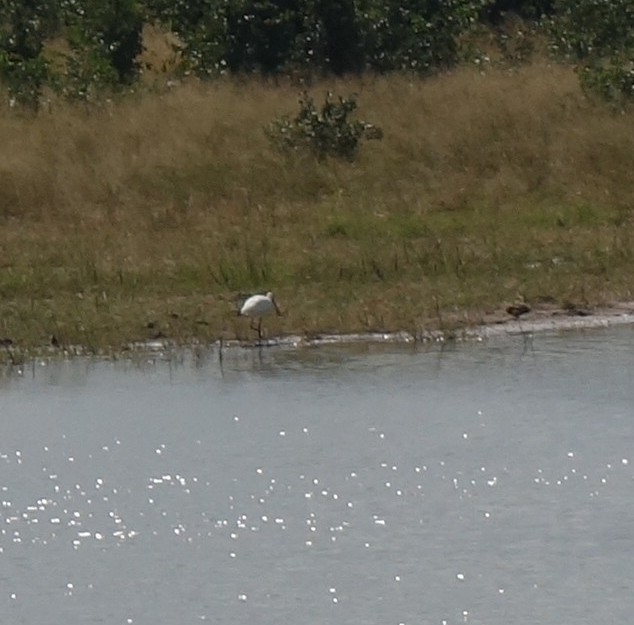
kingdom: Animalia
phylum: Chordata
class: Aves
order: Pelecaniformes
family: Threskiornithidae
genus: Platalea
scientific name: Platalea alba
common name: African spoonbill
